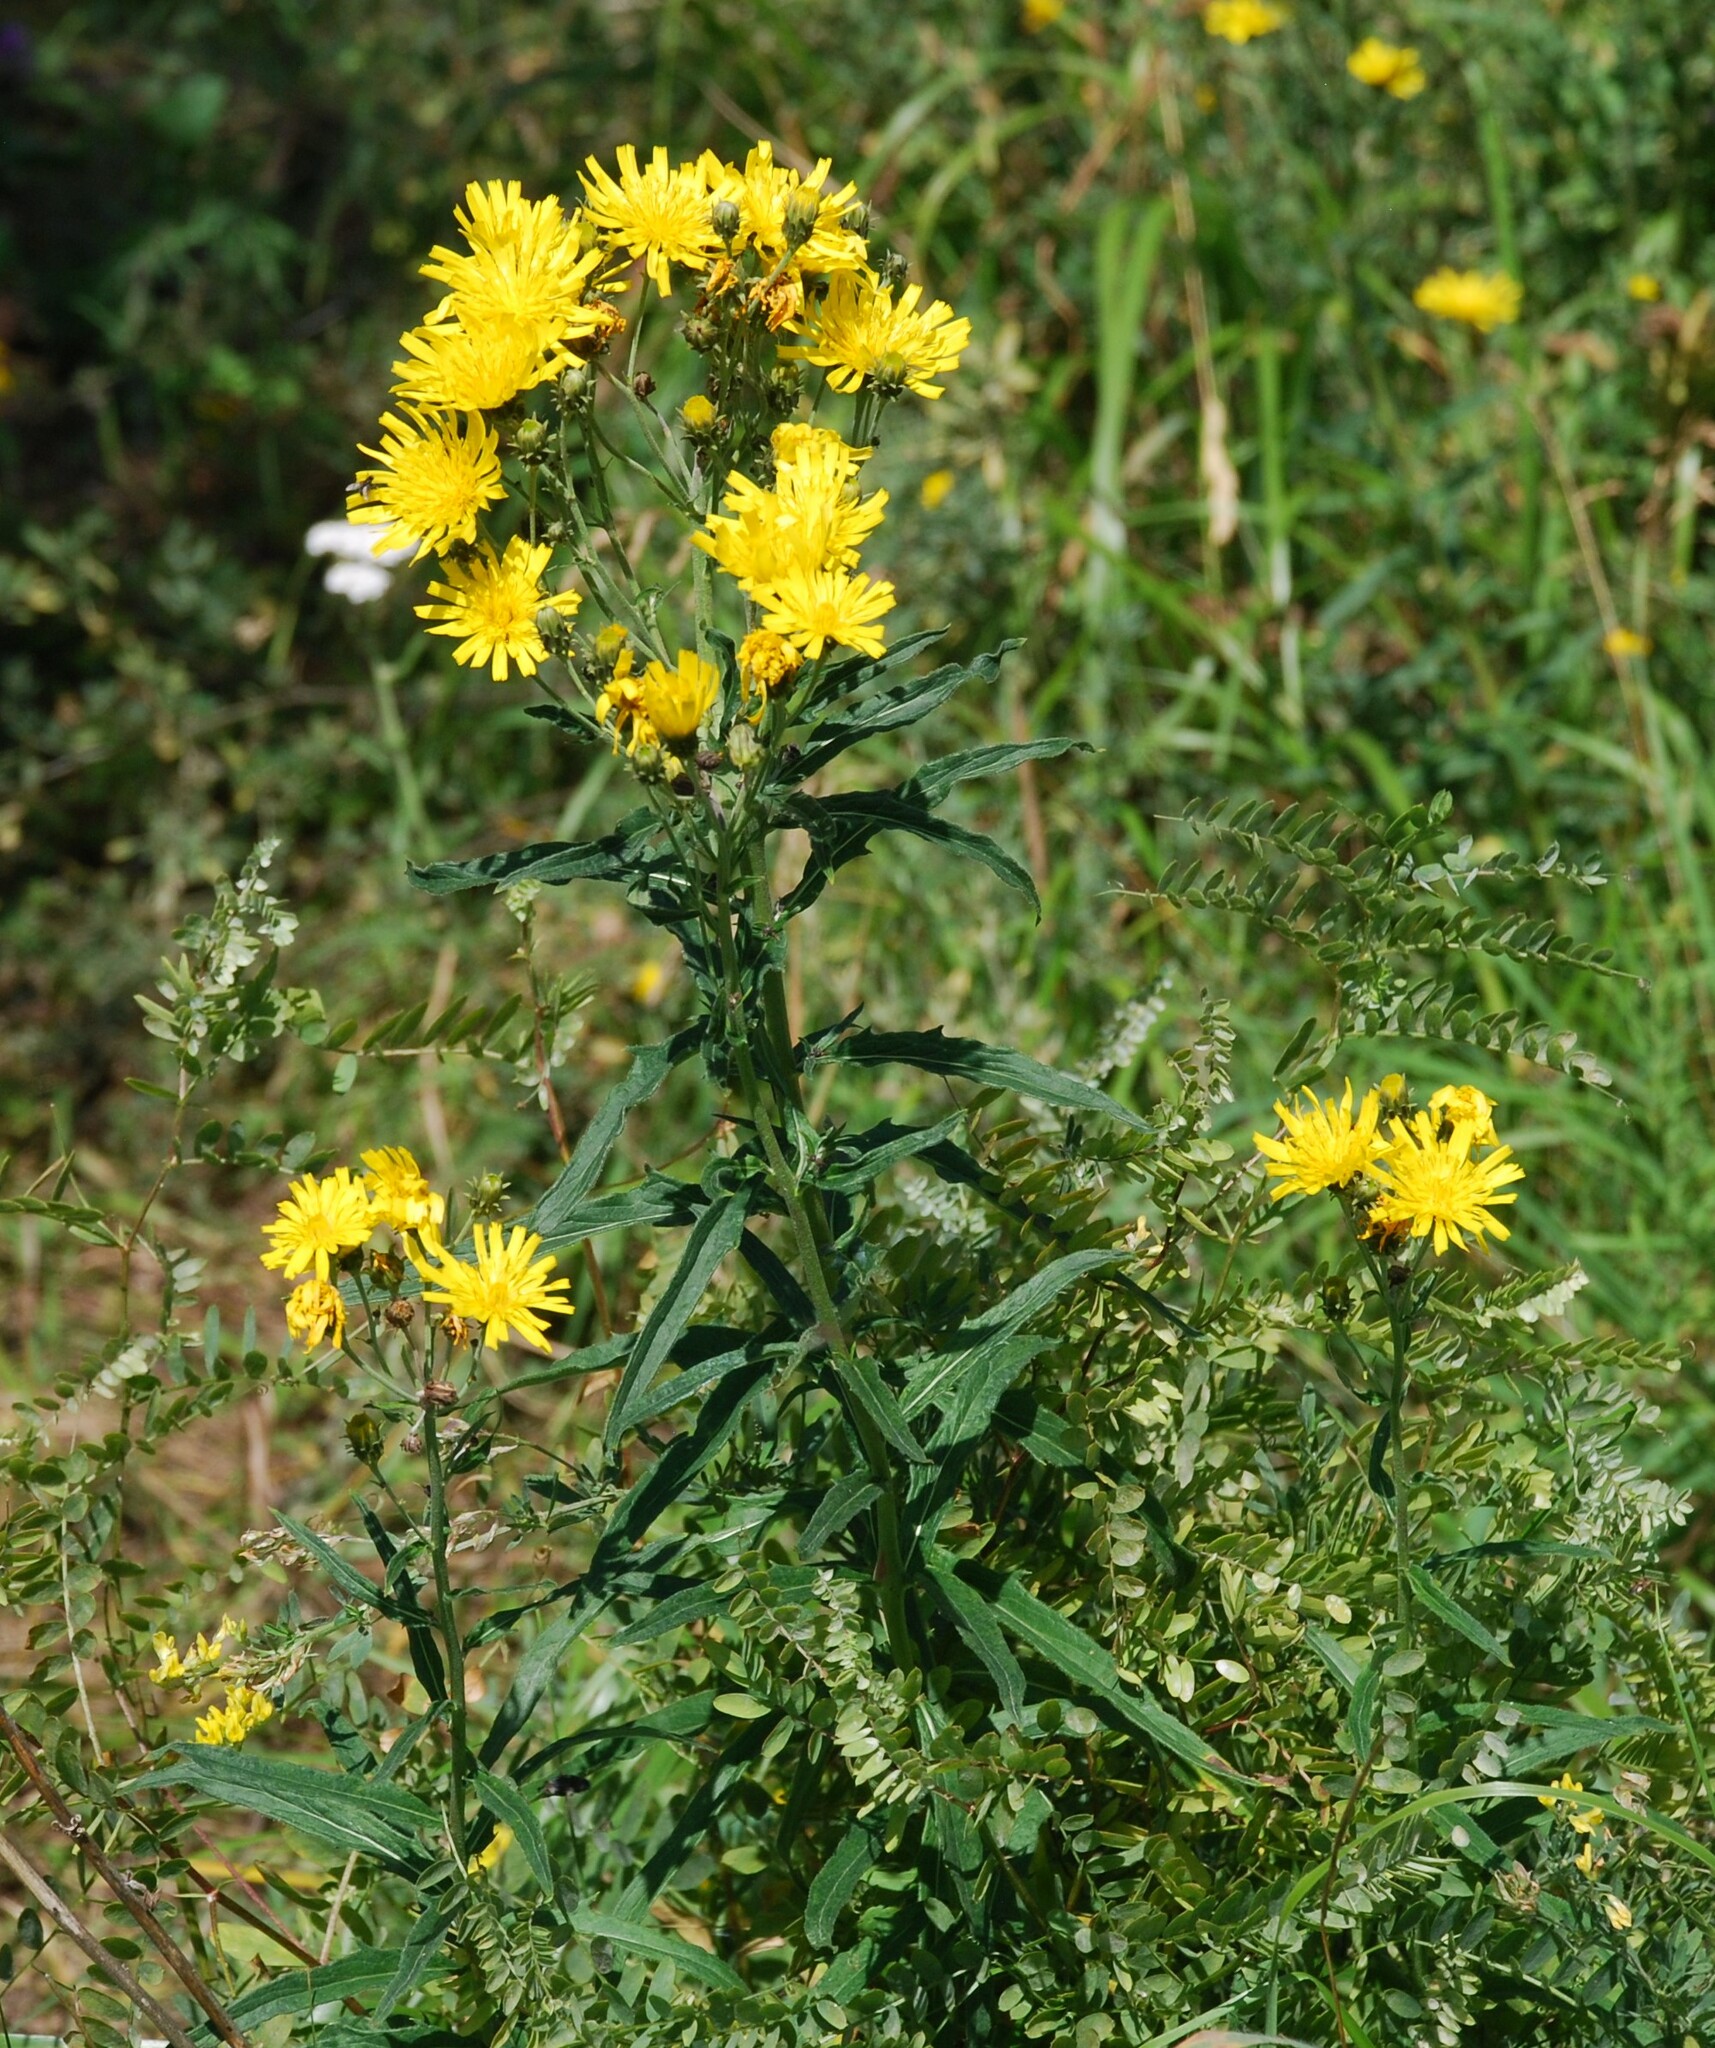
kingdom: Plantae
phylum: Tracheophyta
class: Magnoliopsida
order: Asterales
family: Asteraceae
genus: Hieracium
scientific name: Hieracium umbellatum
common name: Northern hawkweed
